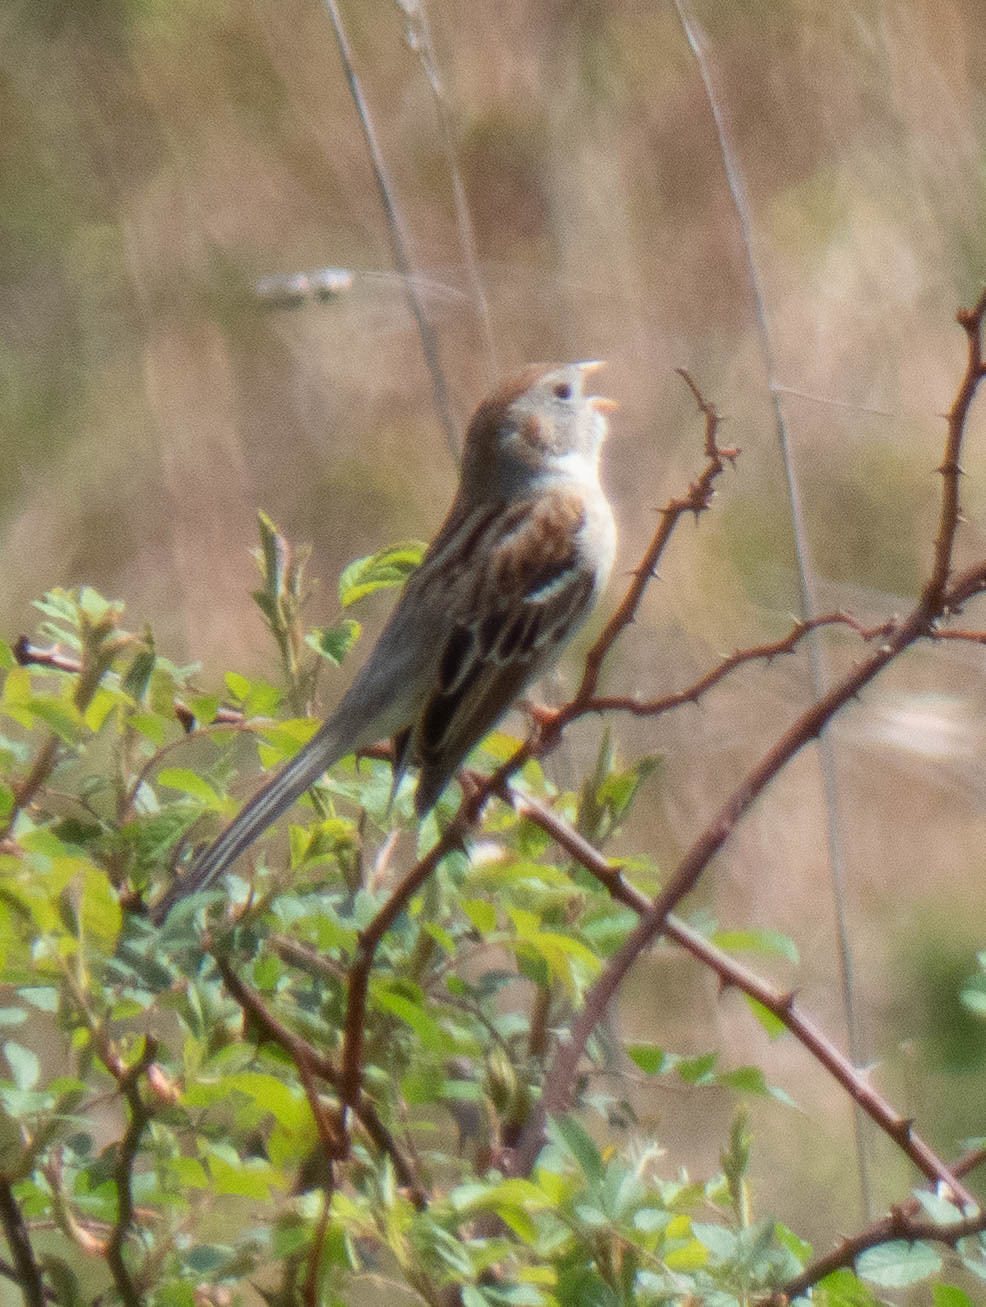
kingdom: Animalia
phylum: Chordata
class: Aves
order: Passeriformes
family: Passerellidae
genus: Spizella
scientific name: Spizella pusilla
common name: Field sparrow
